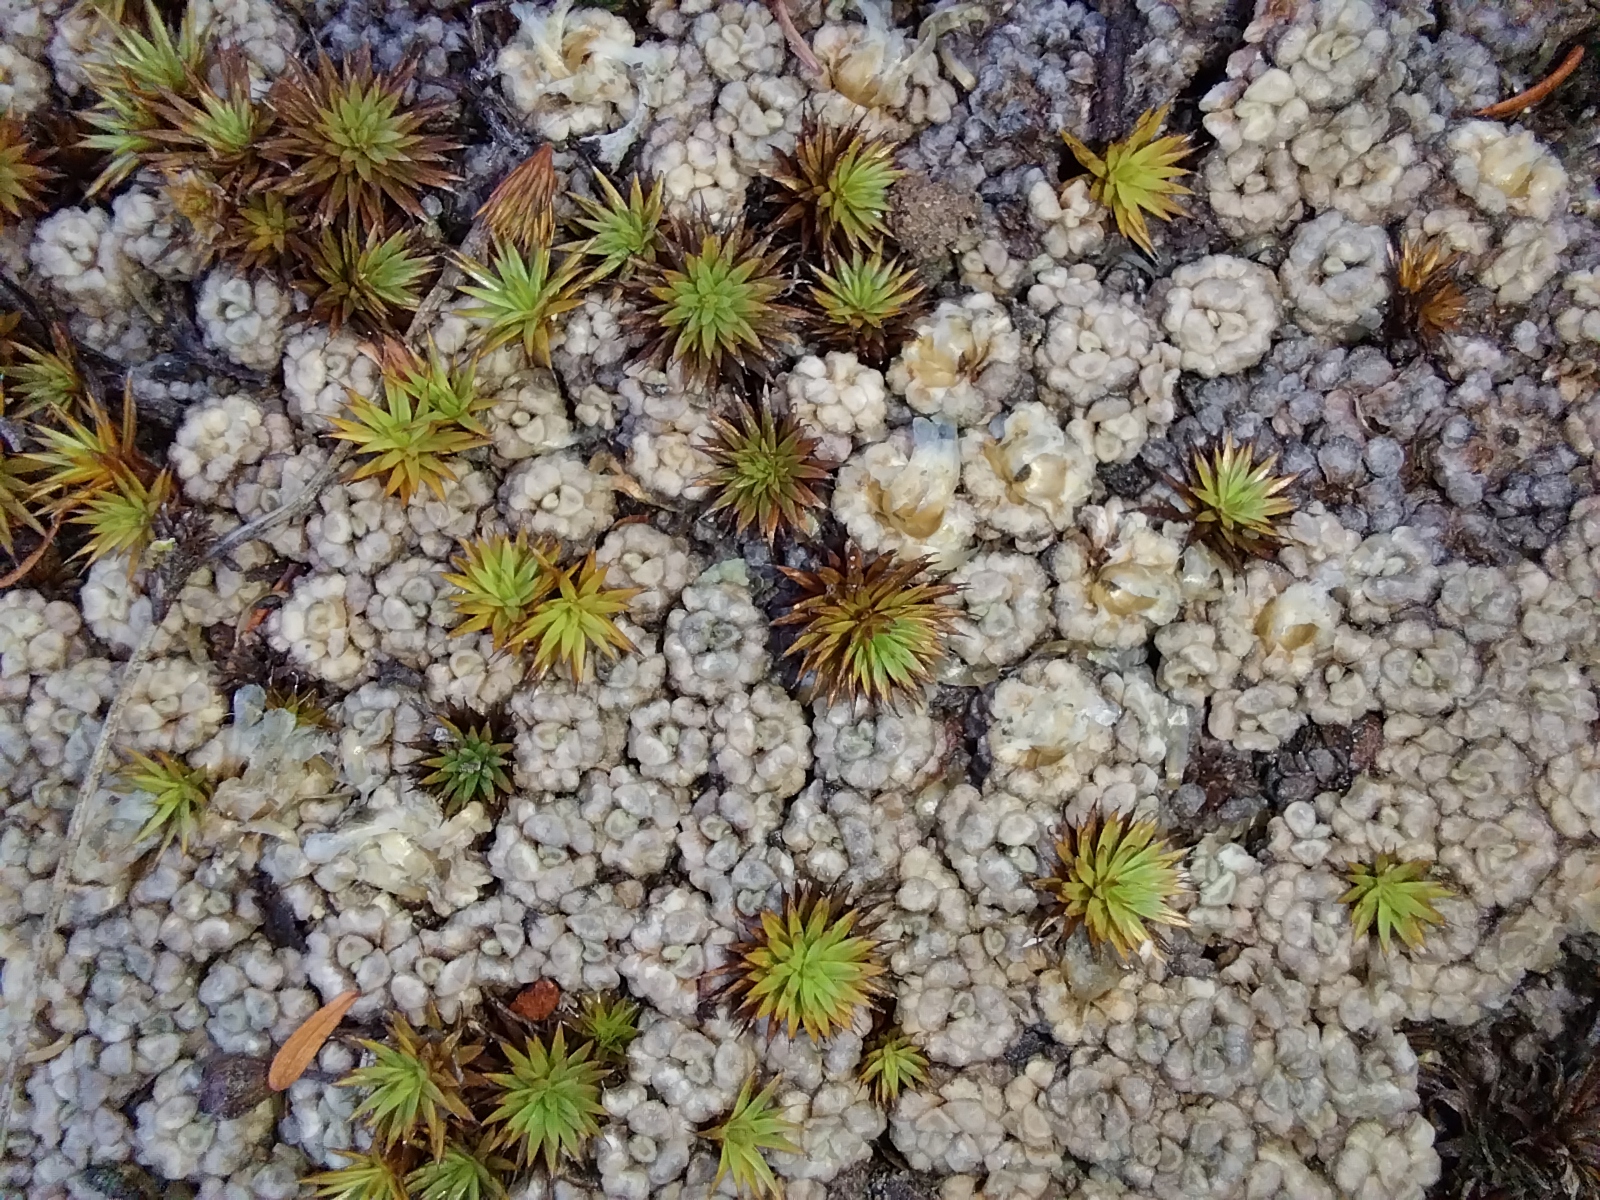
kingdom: Plantae
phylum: Tracheophyta
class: Magnoliopsida
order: Asterales
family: Asteraceae
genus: Raoulia
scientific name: Raoulia parkii
